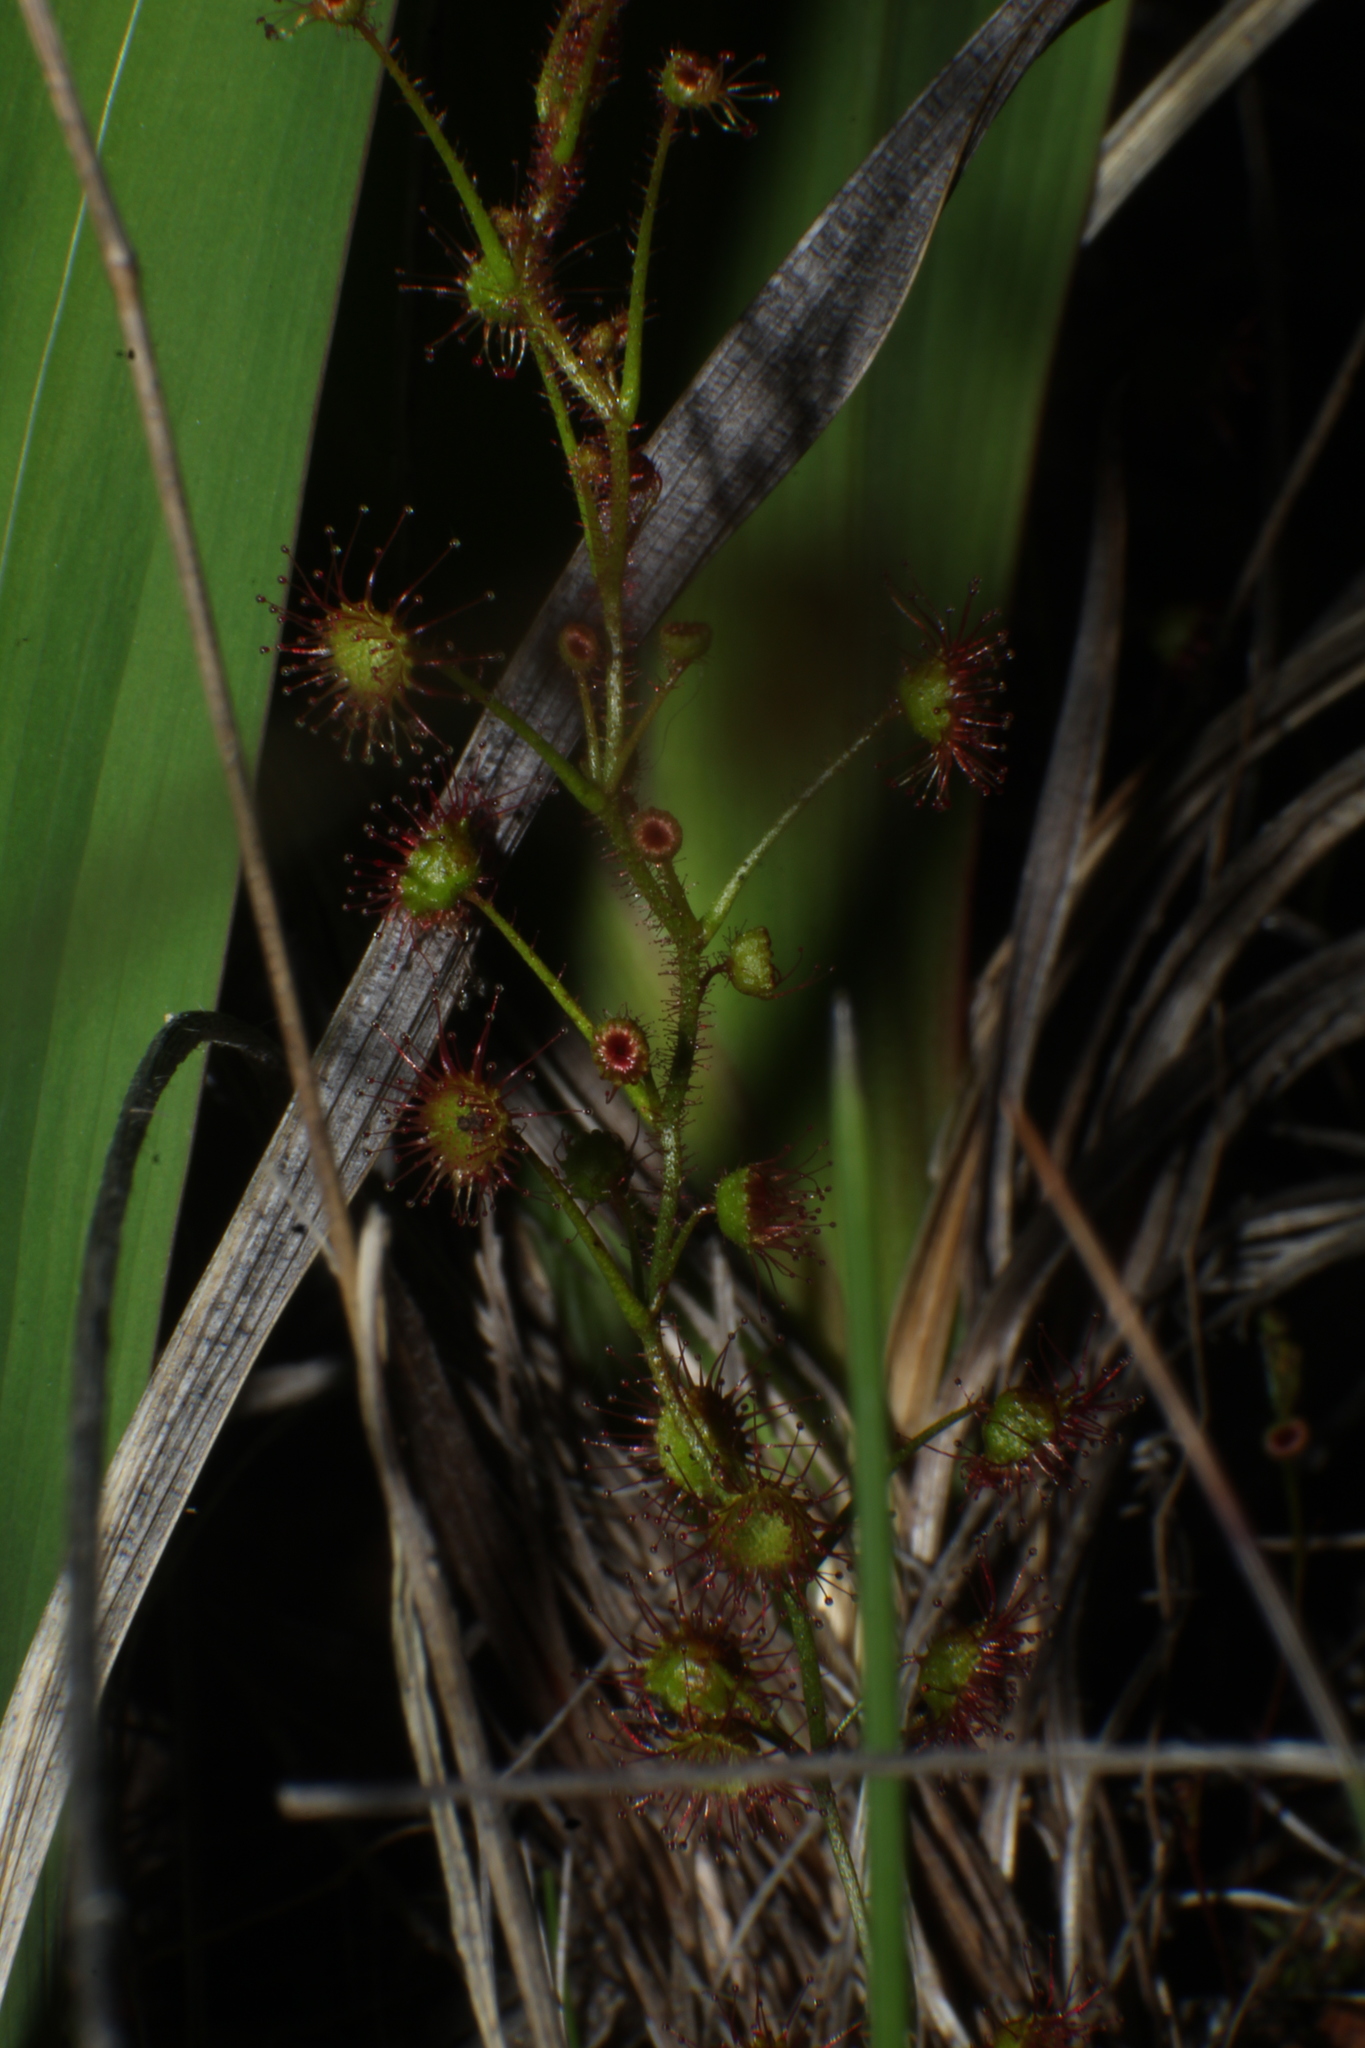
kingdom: Plantae
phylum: Tracheophyta
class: Magnoliopsida
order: Caryophyllales
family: Droseraceae
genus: Drosera
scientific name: Drosera macrantha
